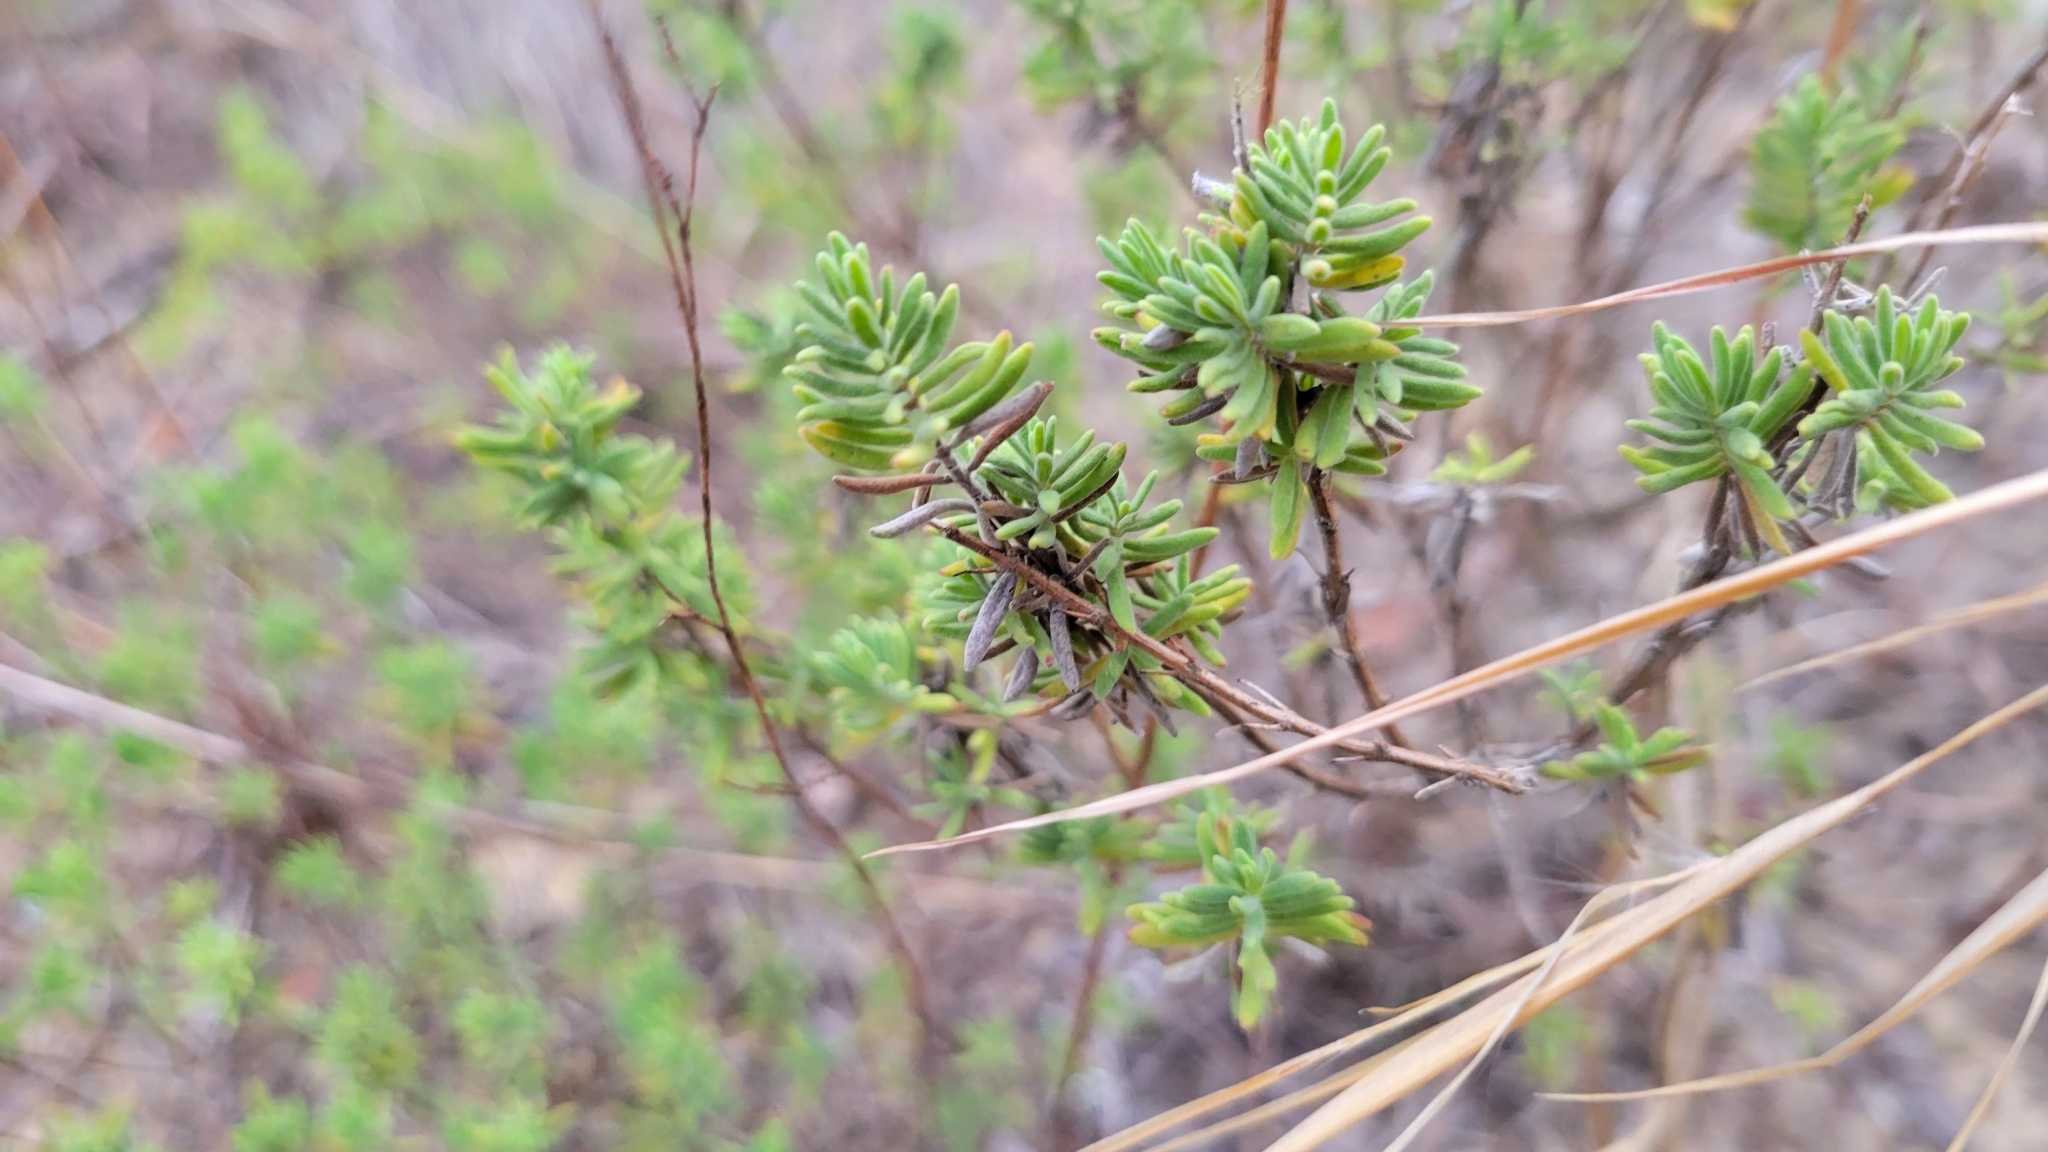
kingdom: Plantae
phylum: Tracheophyta
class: Magnoliopsida
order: Lamiales
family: Lamiaceae
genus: Clinopodium
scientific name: Clinopodium ashei
